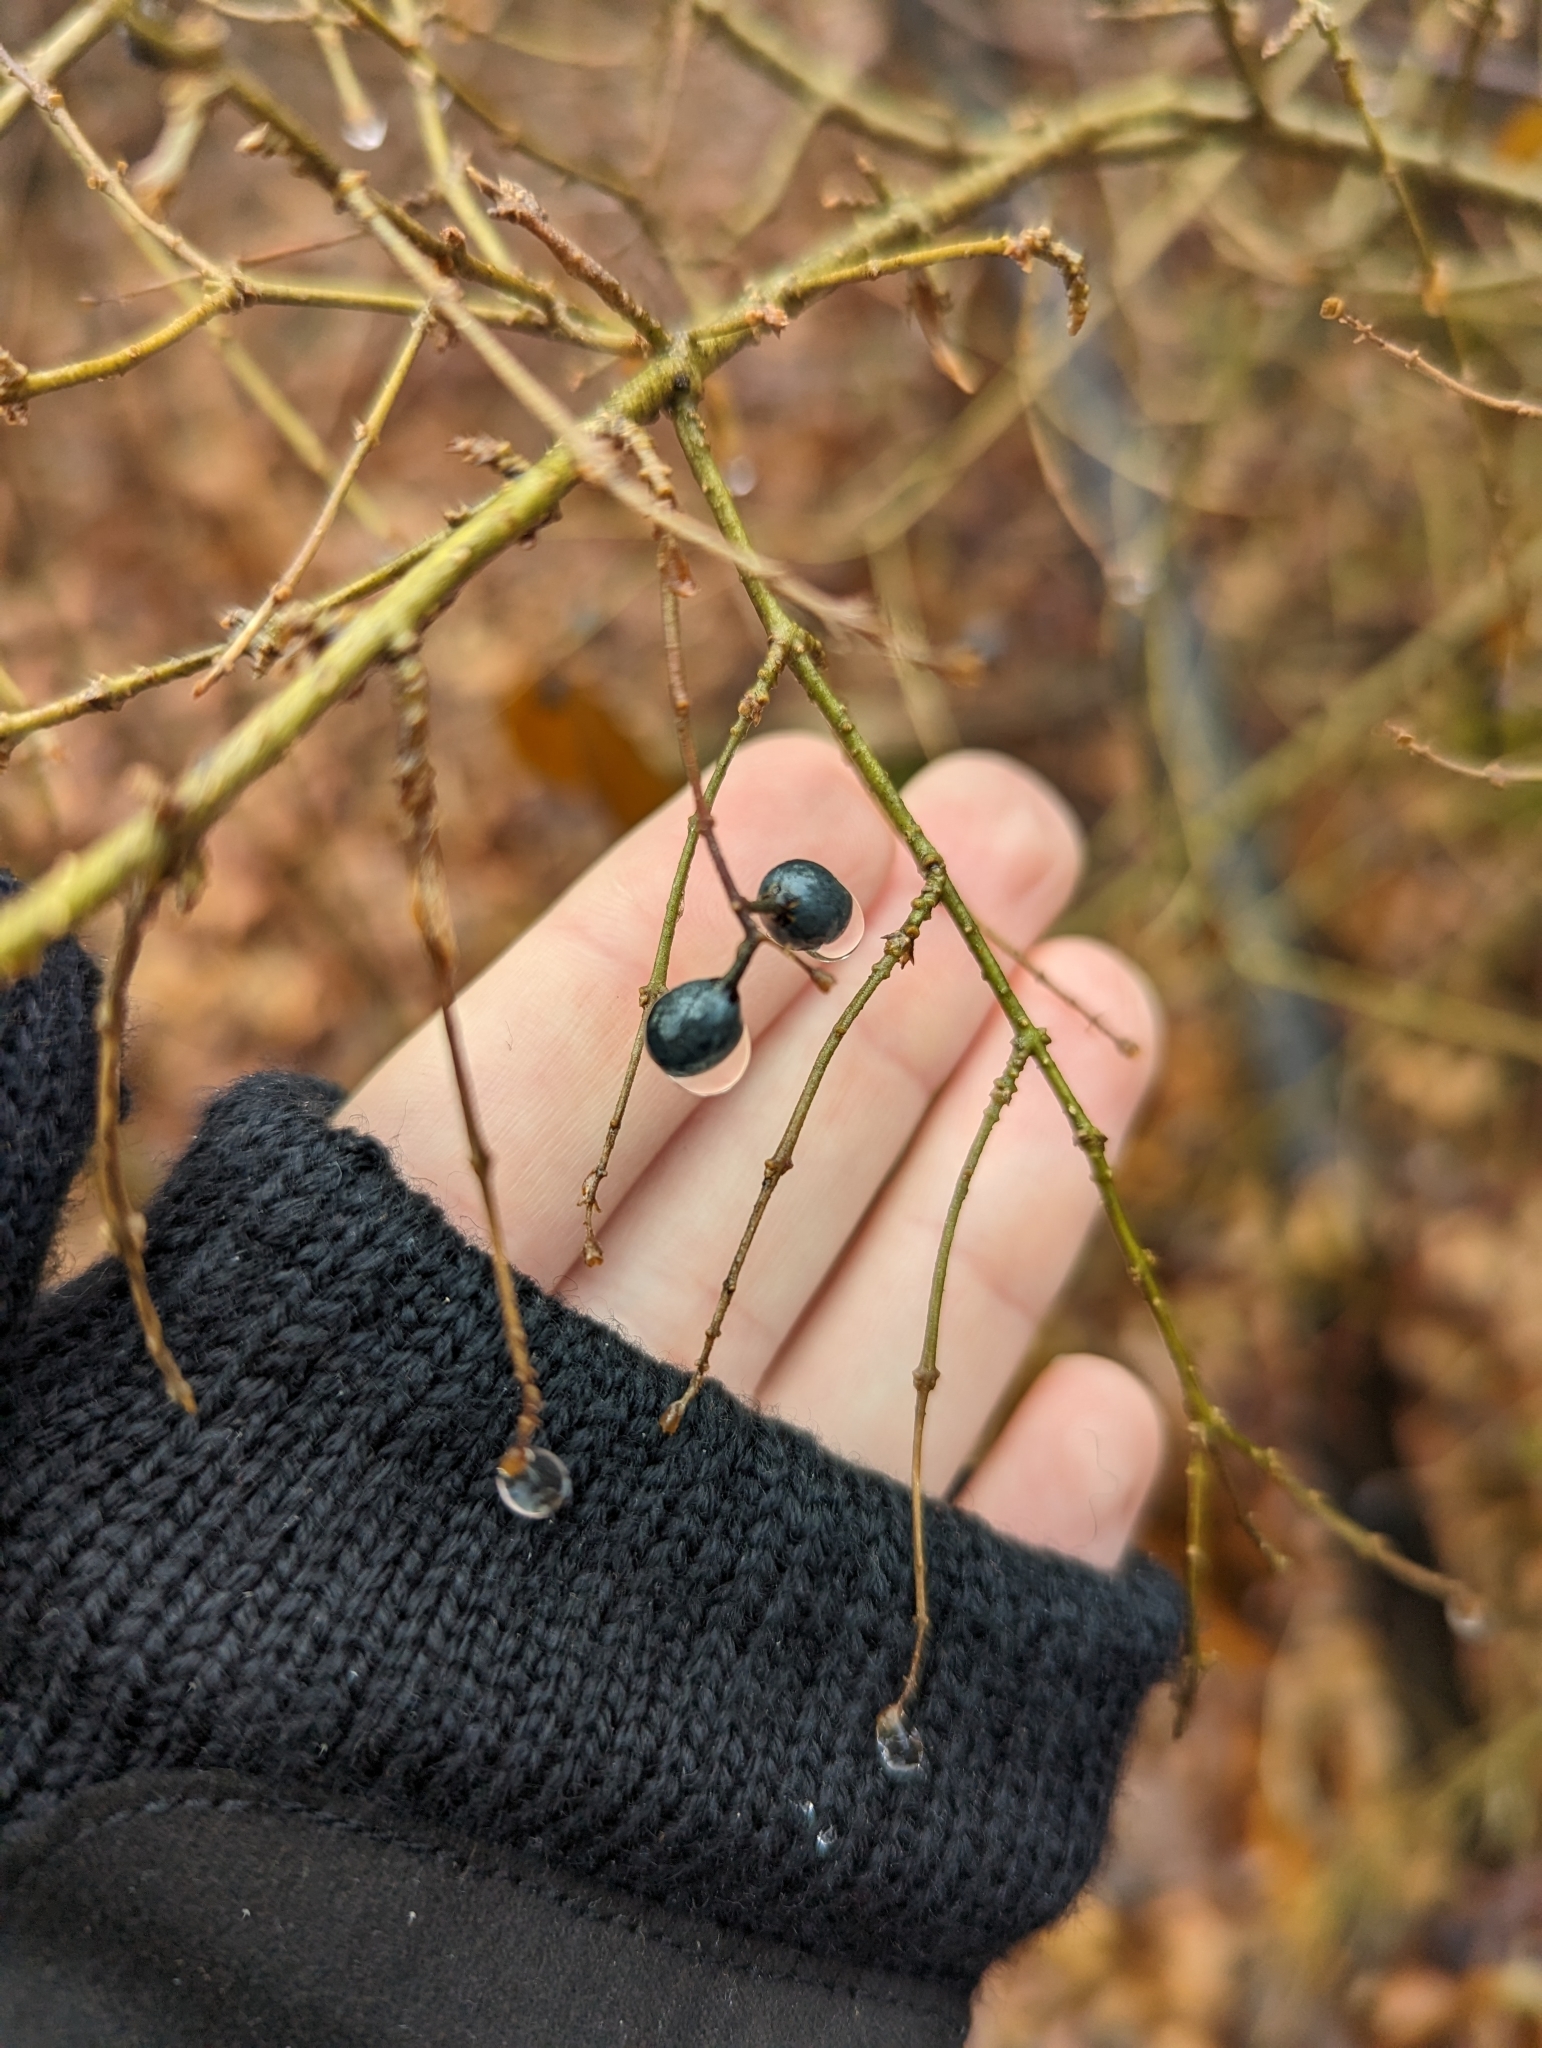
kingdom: Plantae
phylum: Tracheophyta
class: Magnoliopsida
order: Lamiales
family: Oleaceae
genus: Ligustrum
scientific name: Ligustrum obtusifolium
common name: Border privet
